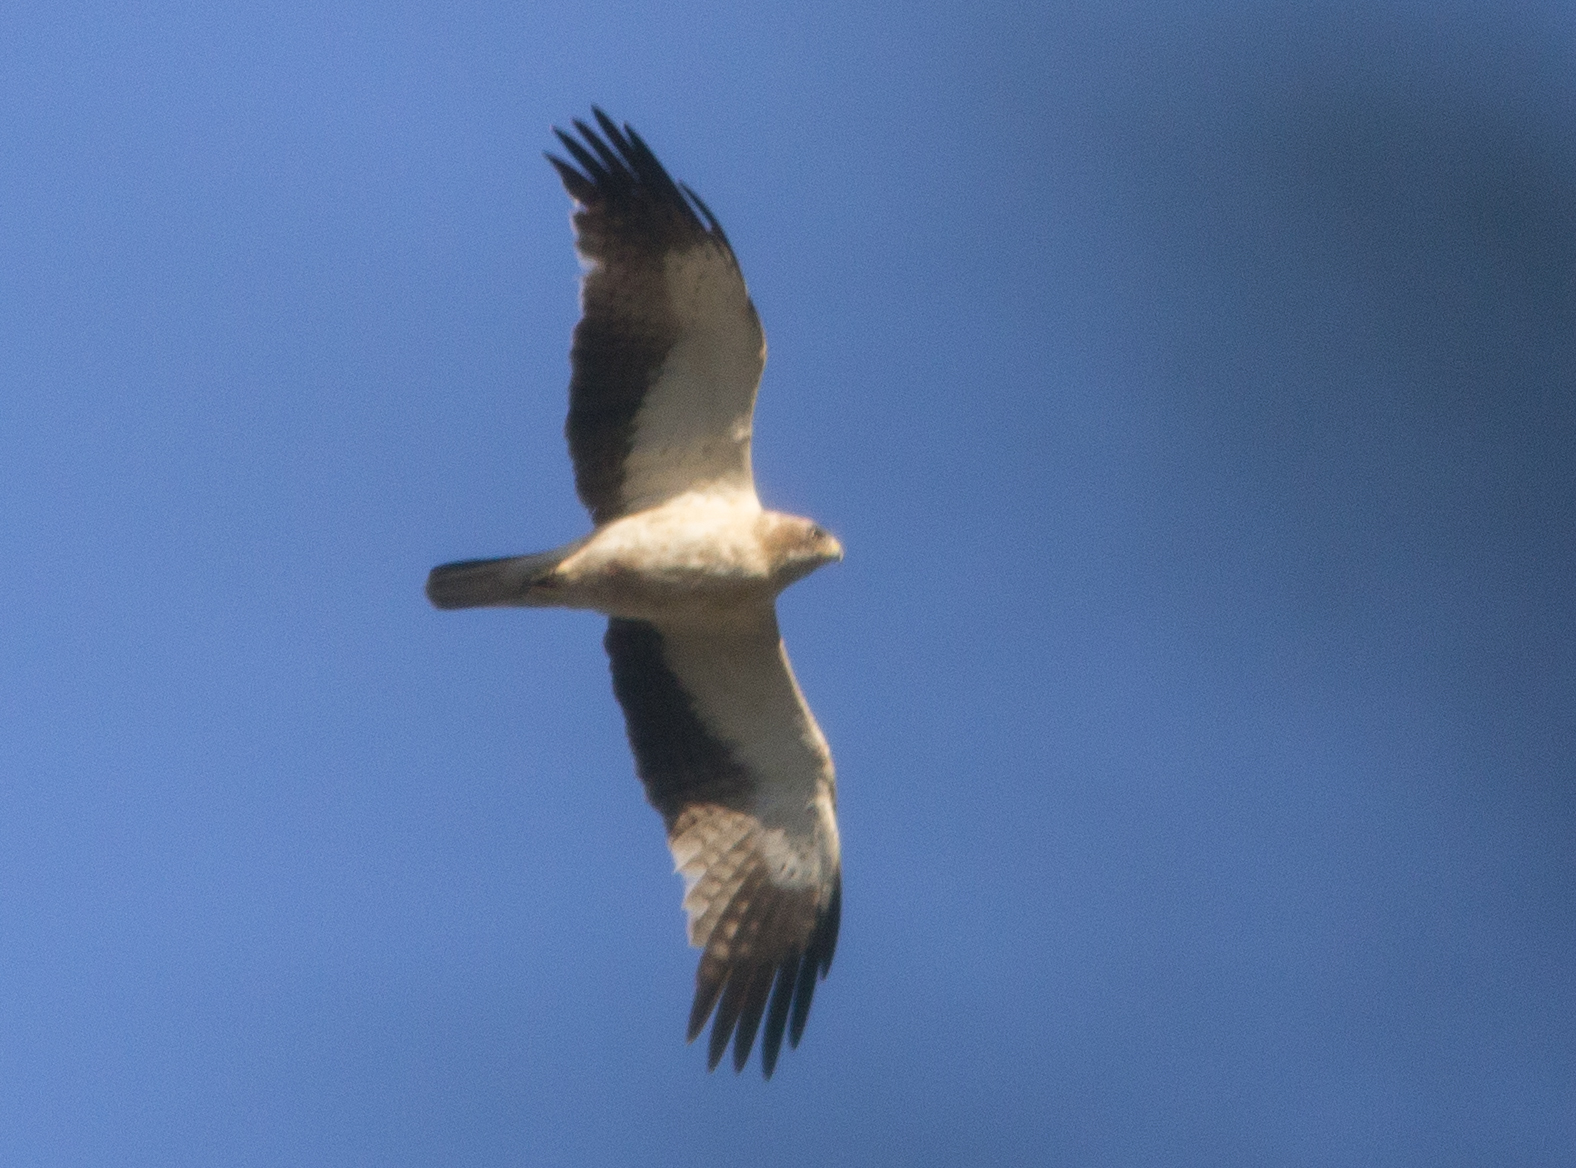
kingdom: Animalia
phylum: Chordata
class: Aves
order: Accipitriformes
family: Accipitridae
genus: Hieraaetus
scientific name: Hieraaetus pennatus
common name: Booted eagle
